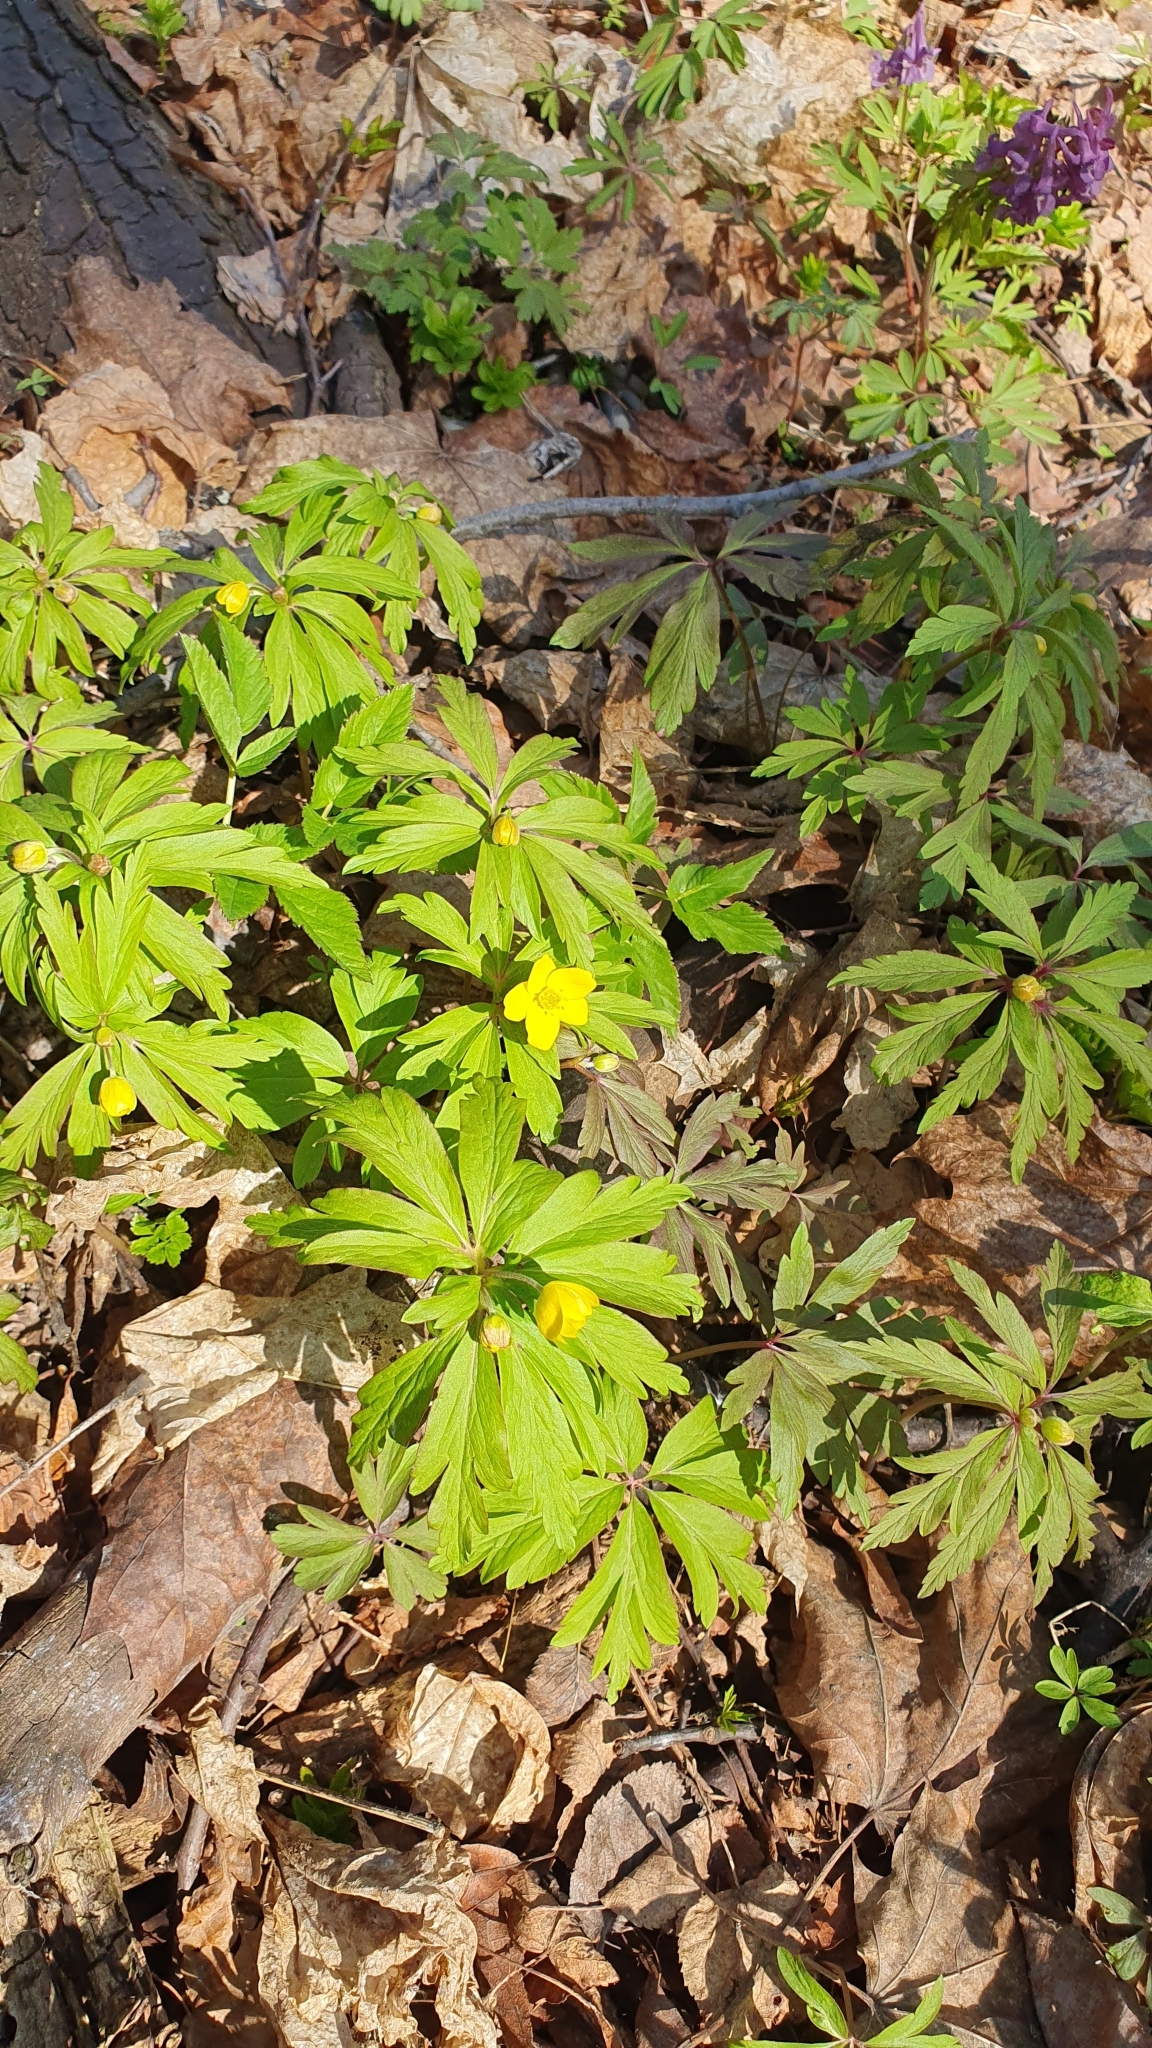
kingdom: Plantae
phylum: Tracheophyta
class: Magnoliopsida
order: Ranunculales
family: Ranunculaceae
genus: Anemone
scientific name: Anemone ranunculoides
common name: Yellow anemone
